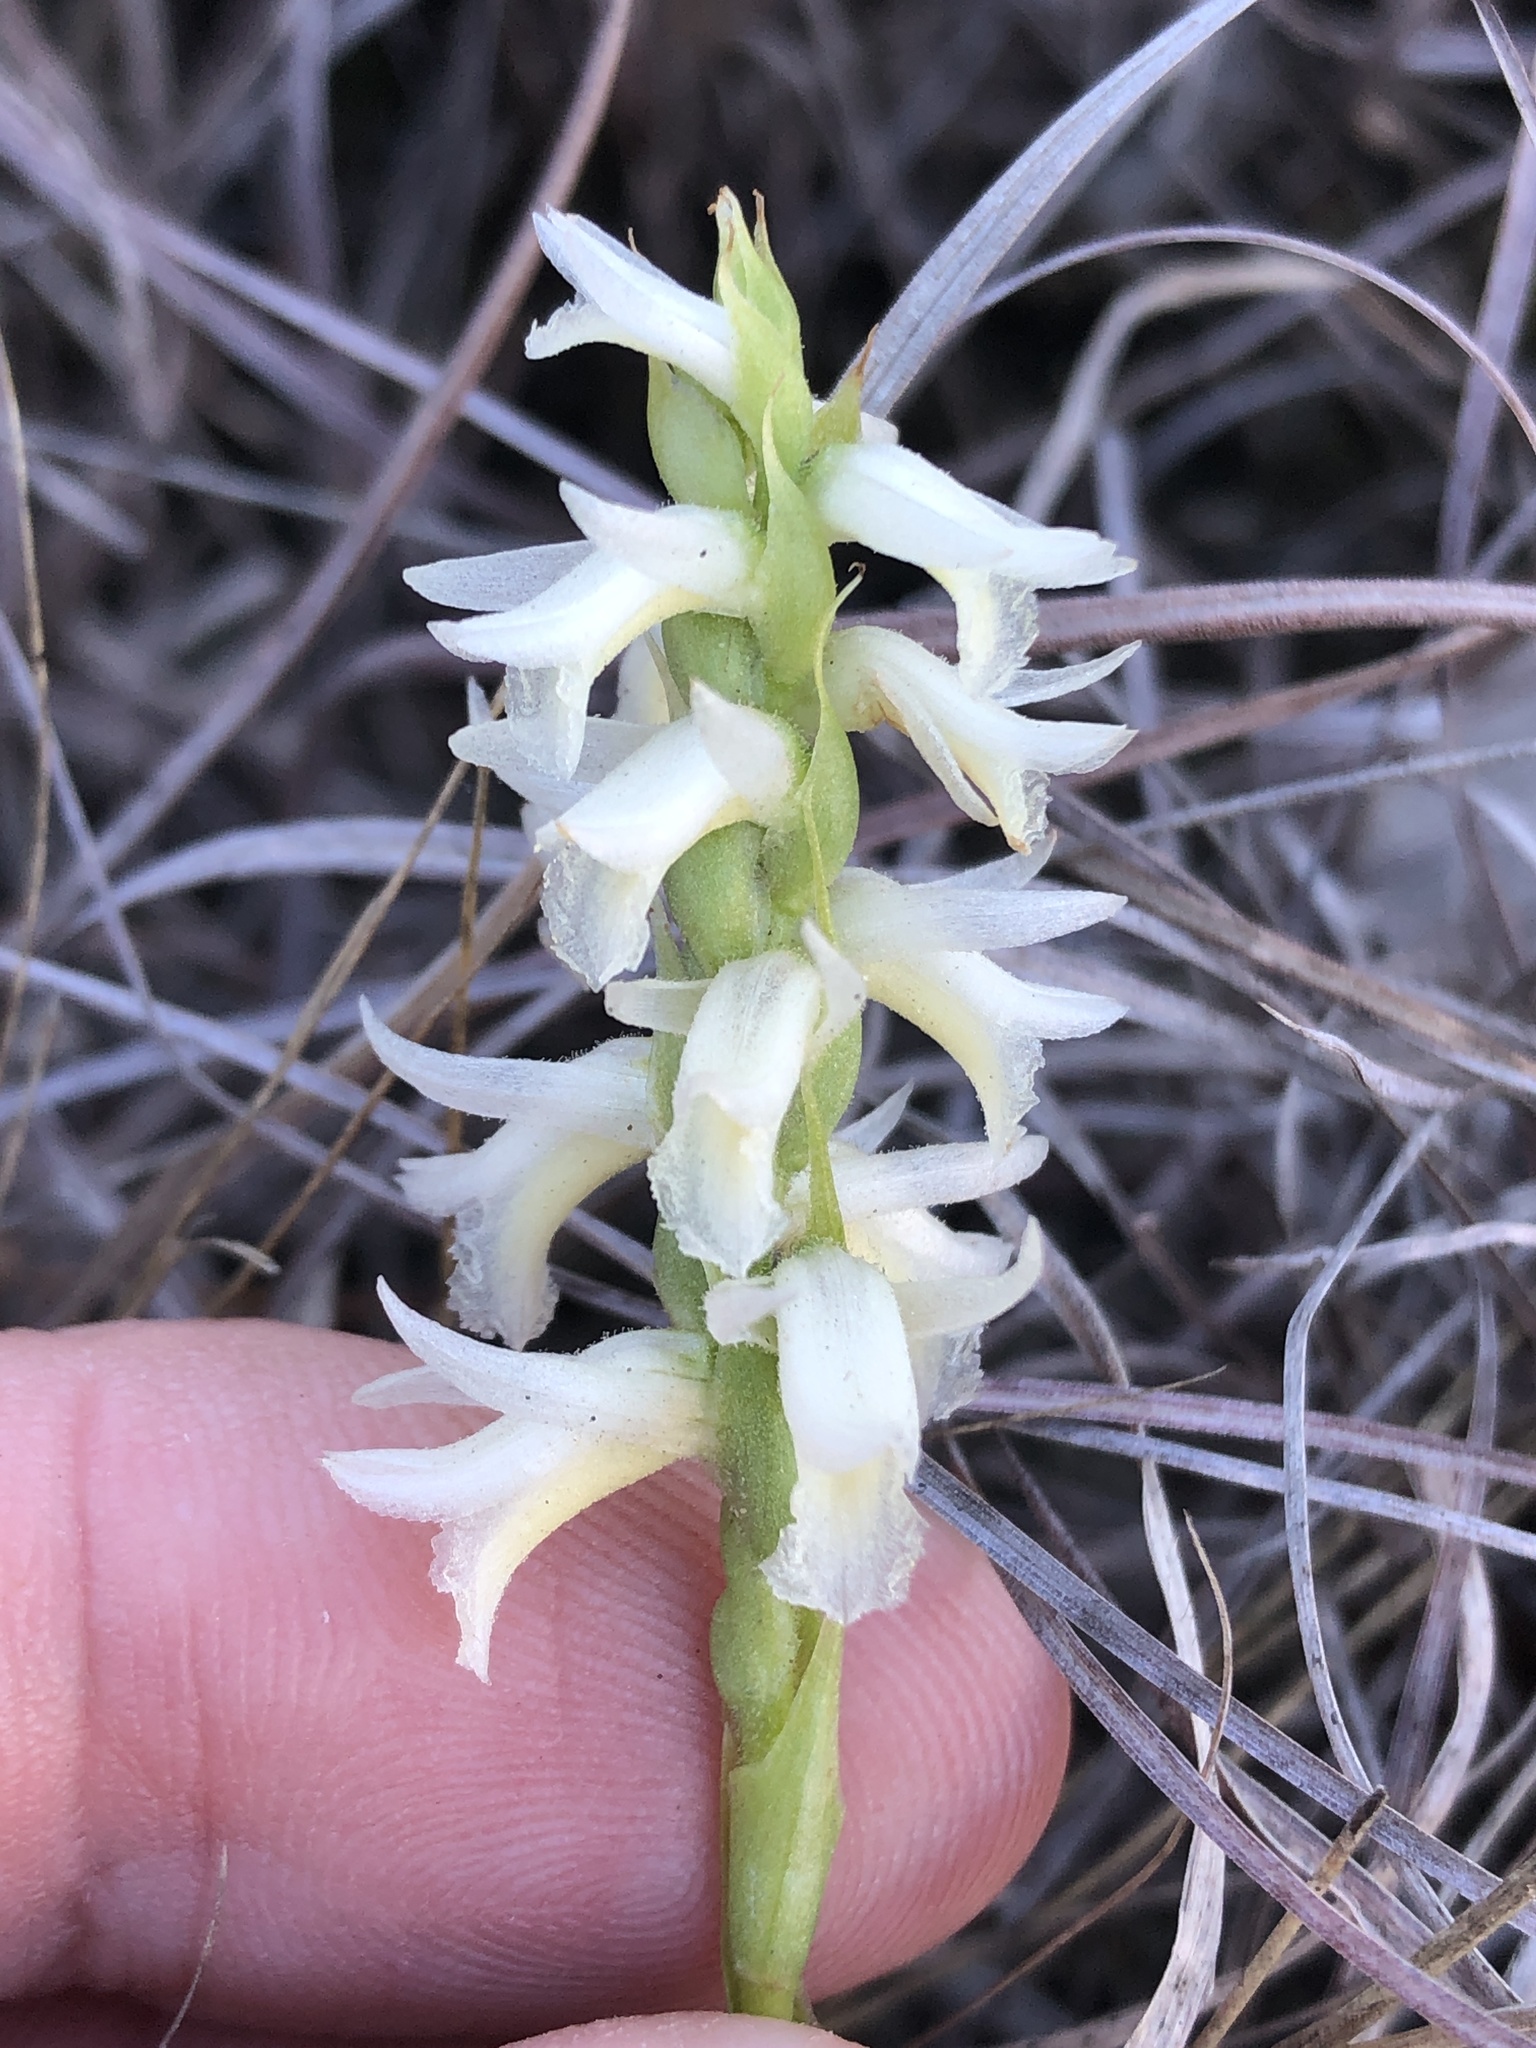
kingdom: Plantae
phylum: Tracheophyta
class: Liliopsida
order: Asparagales
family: Orchidaceae
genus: Spiranthes
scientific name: Spiranthes magnicamporum
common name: Great plains ladies'-tresses
